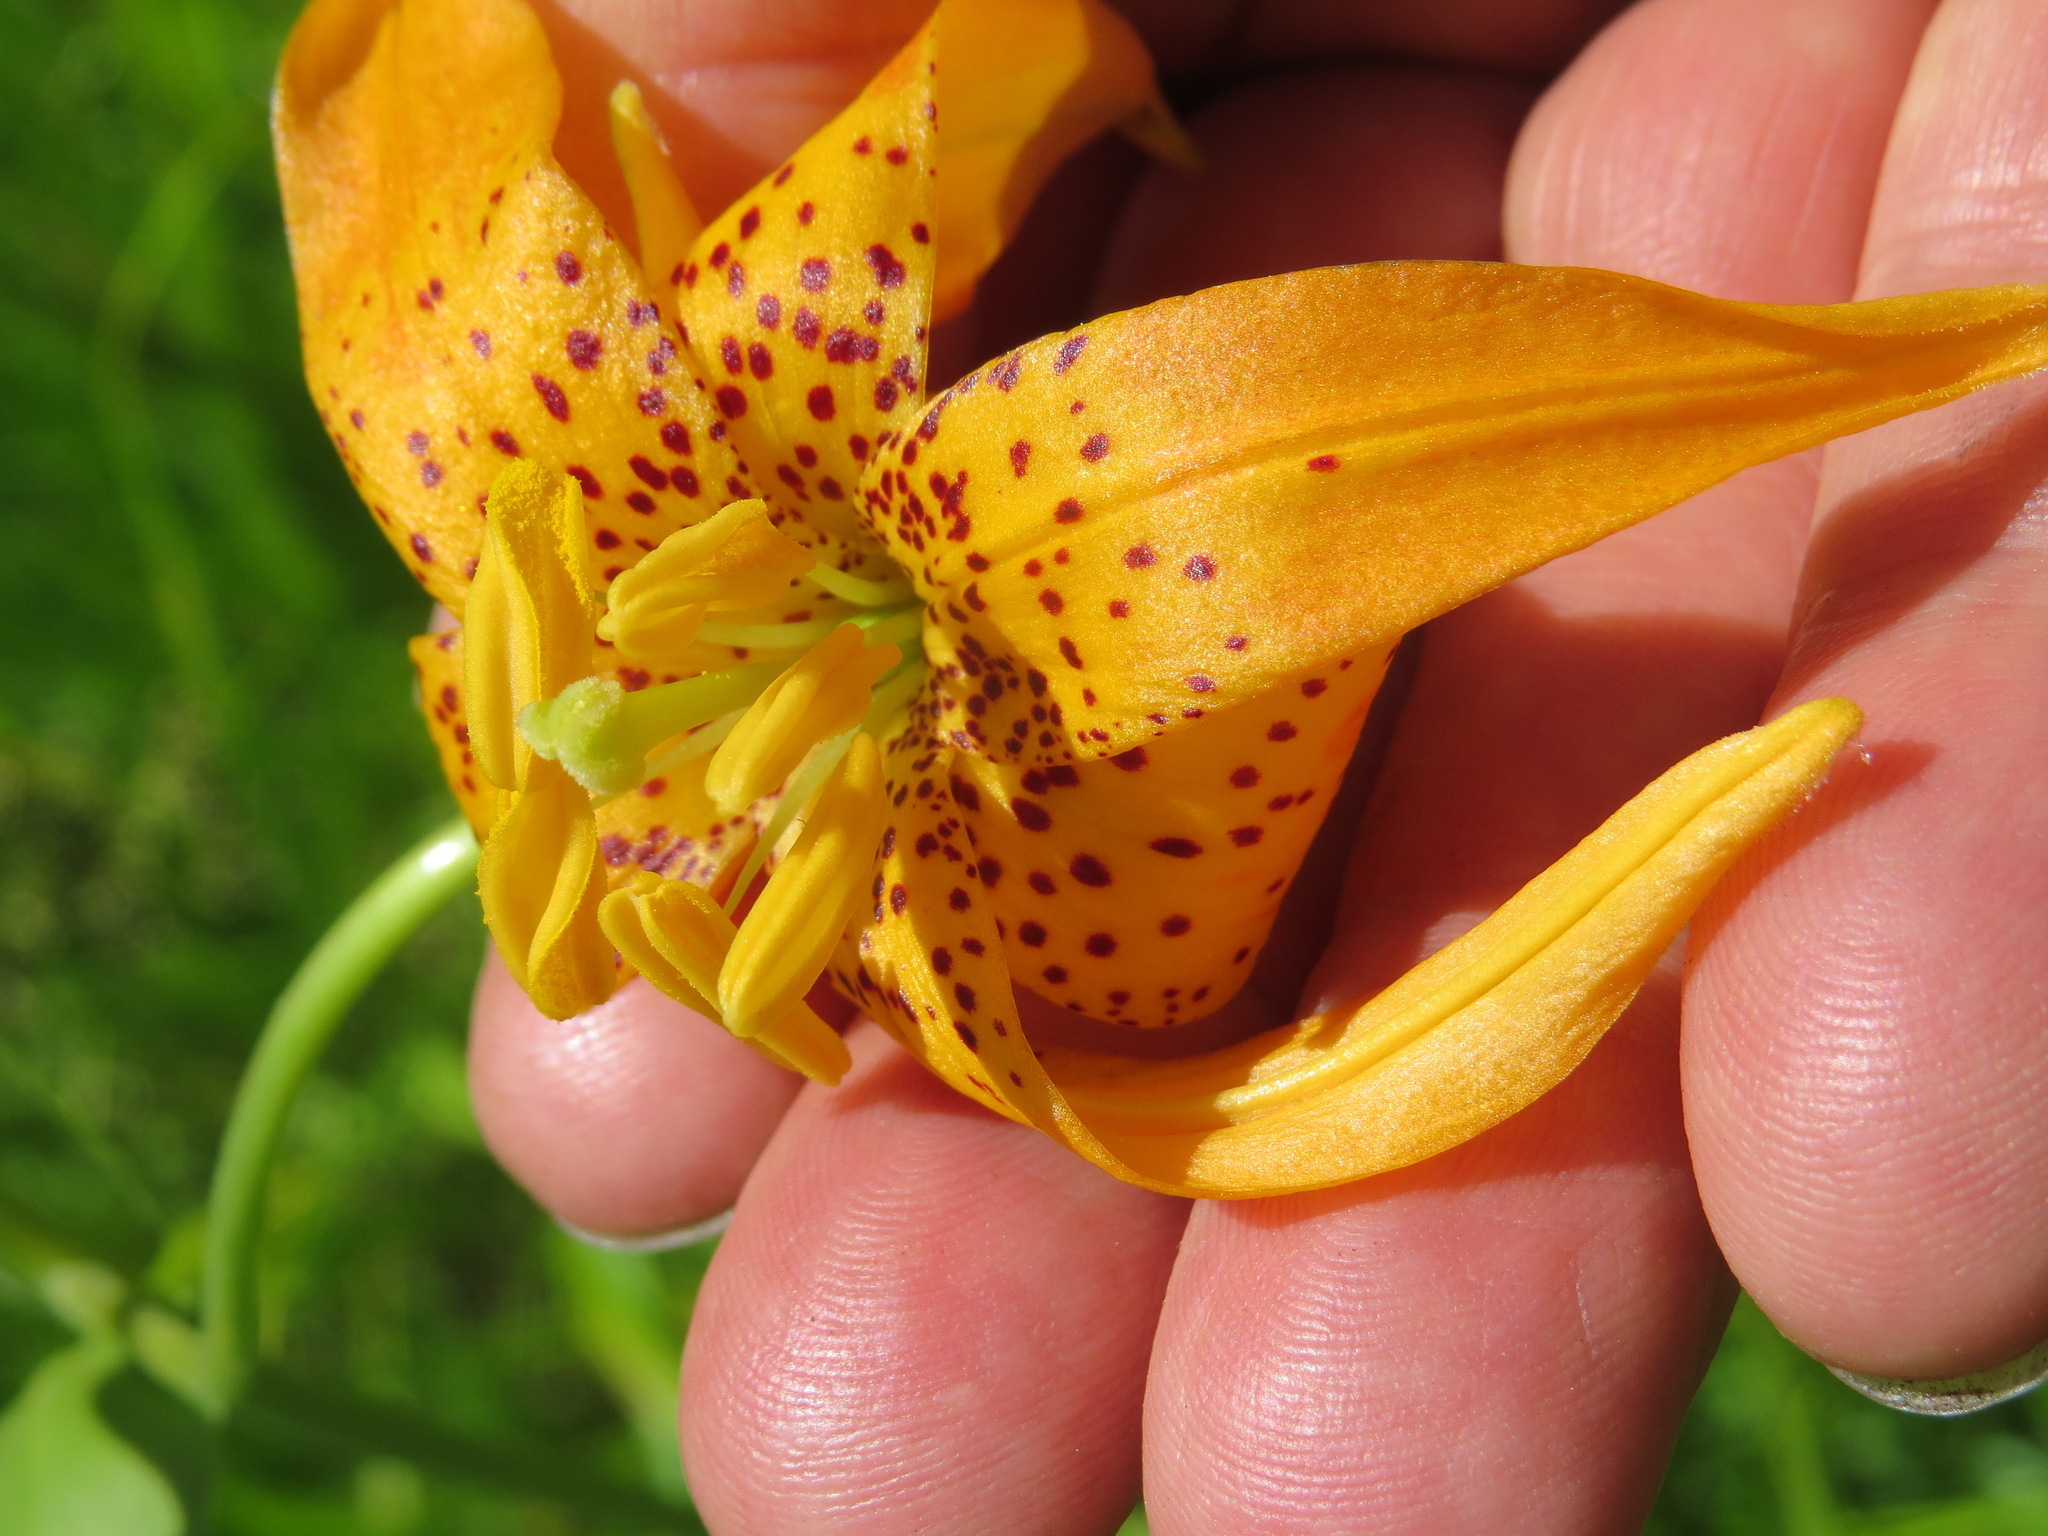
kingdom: Plantae
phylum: Tracheophyta
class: Liliopsida
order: Liliales
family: Liliaceae
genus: Lilium
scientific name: Lilium kelleyanum
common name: Kelley's lily
